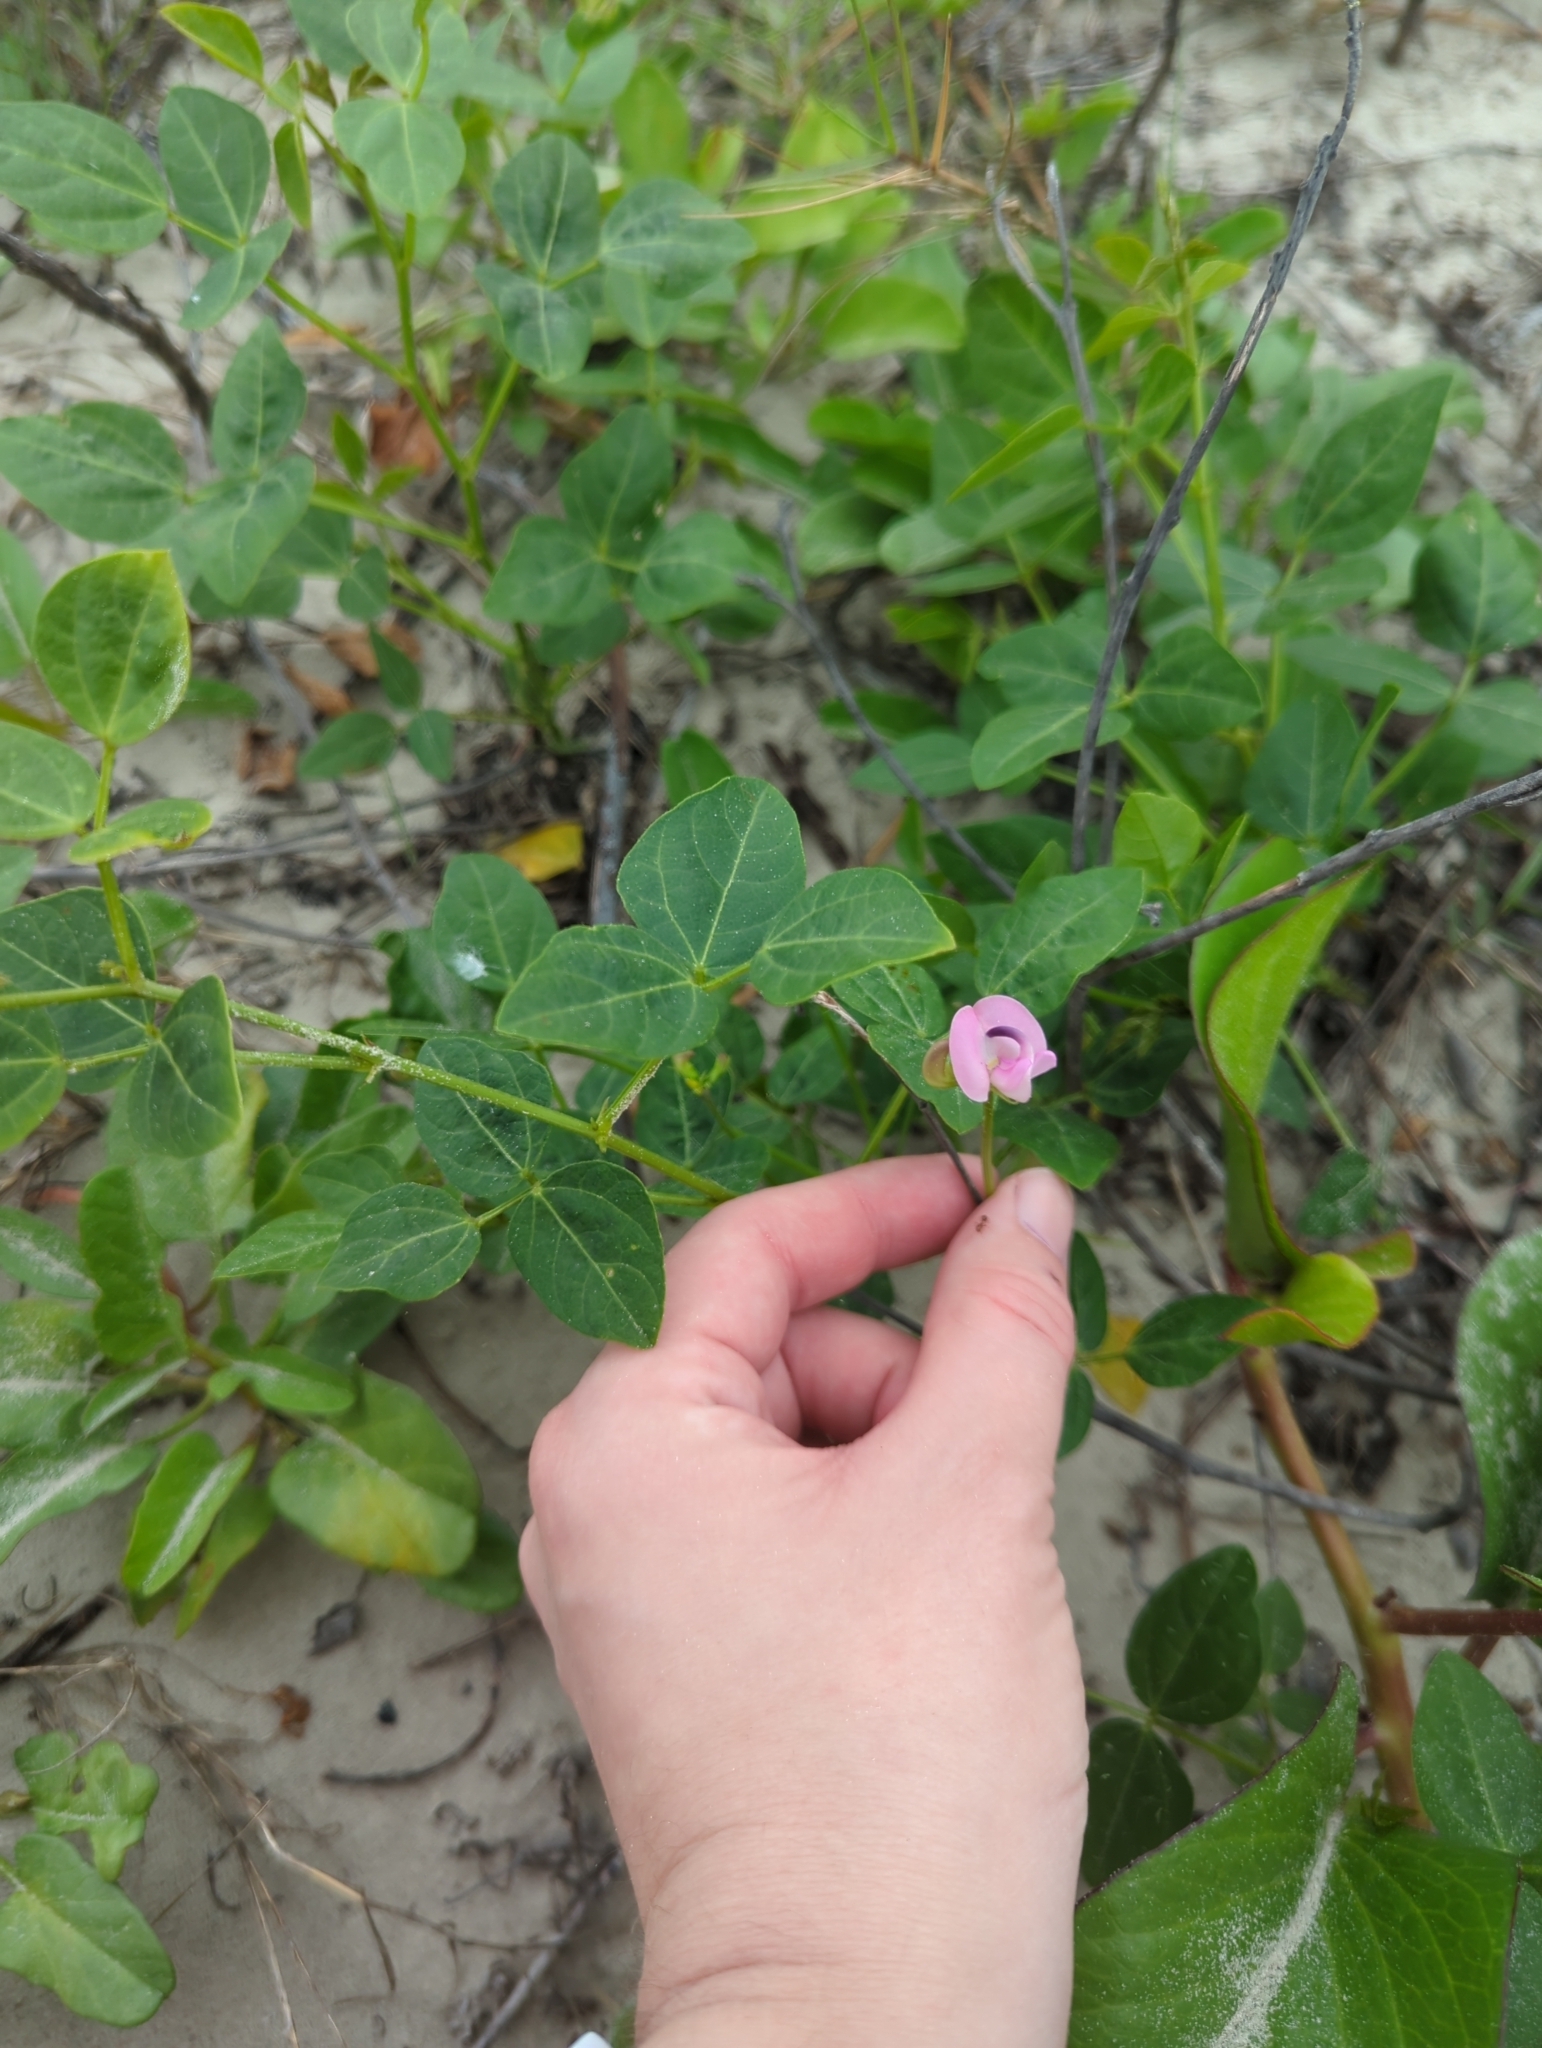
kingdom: Plantae
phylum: Tracheophyta
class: Magnoliopsida
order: Fabales
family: Fabaceae
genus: Strophostyles
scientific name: Strophostyles helvola
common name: Trailing wild bean
